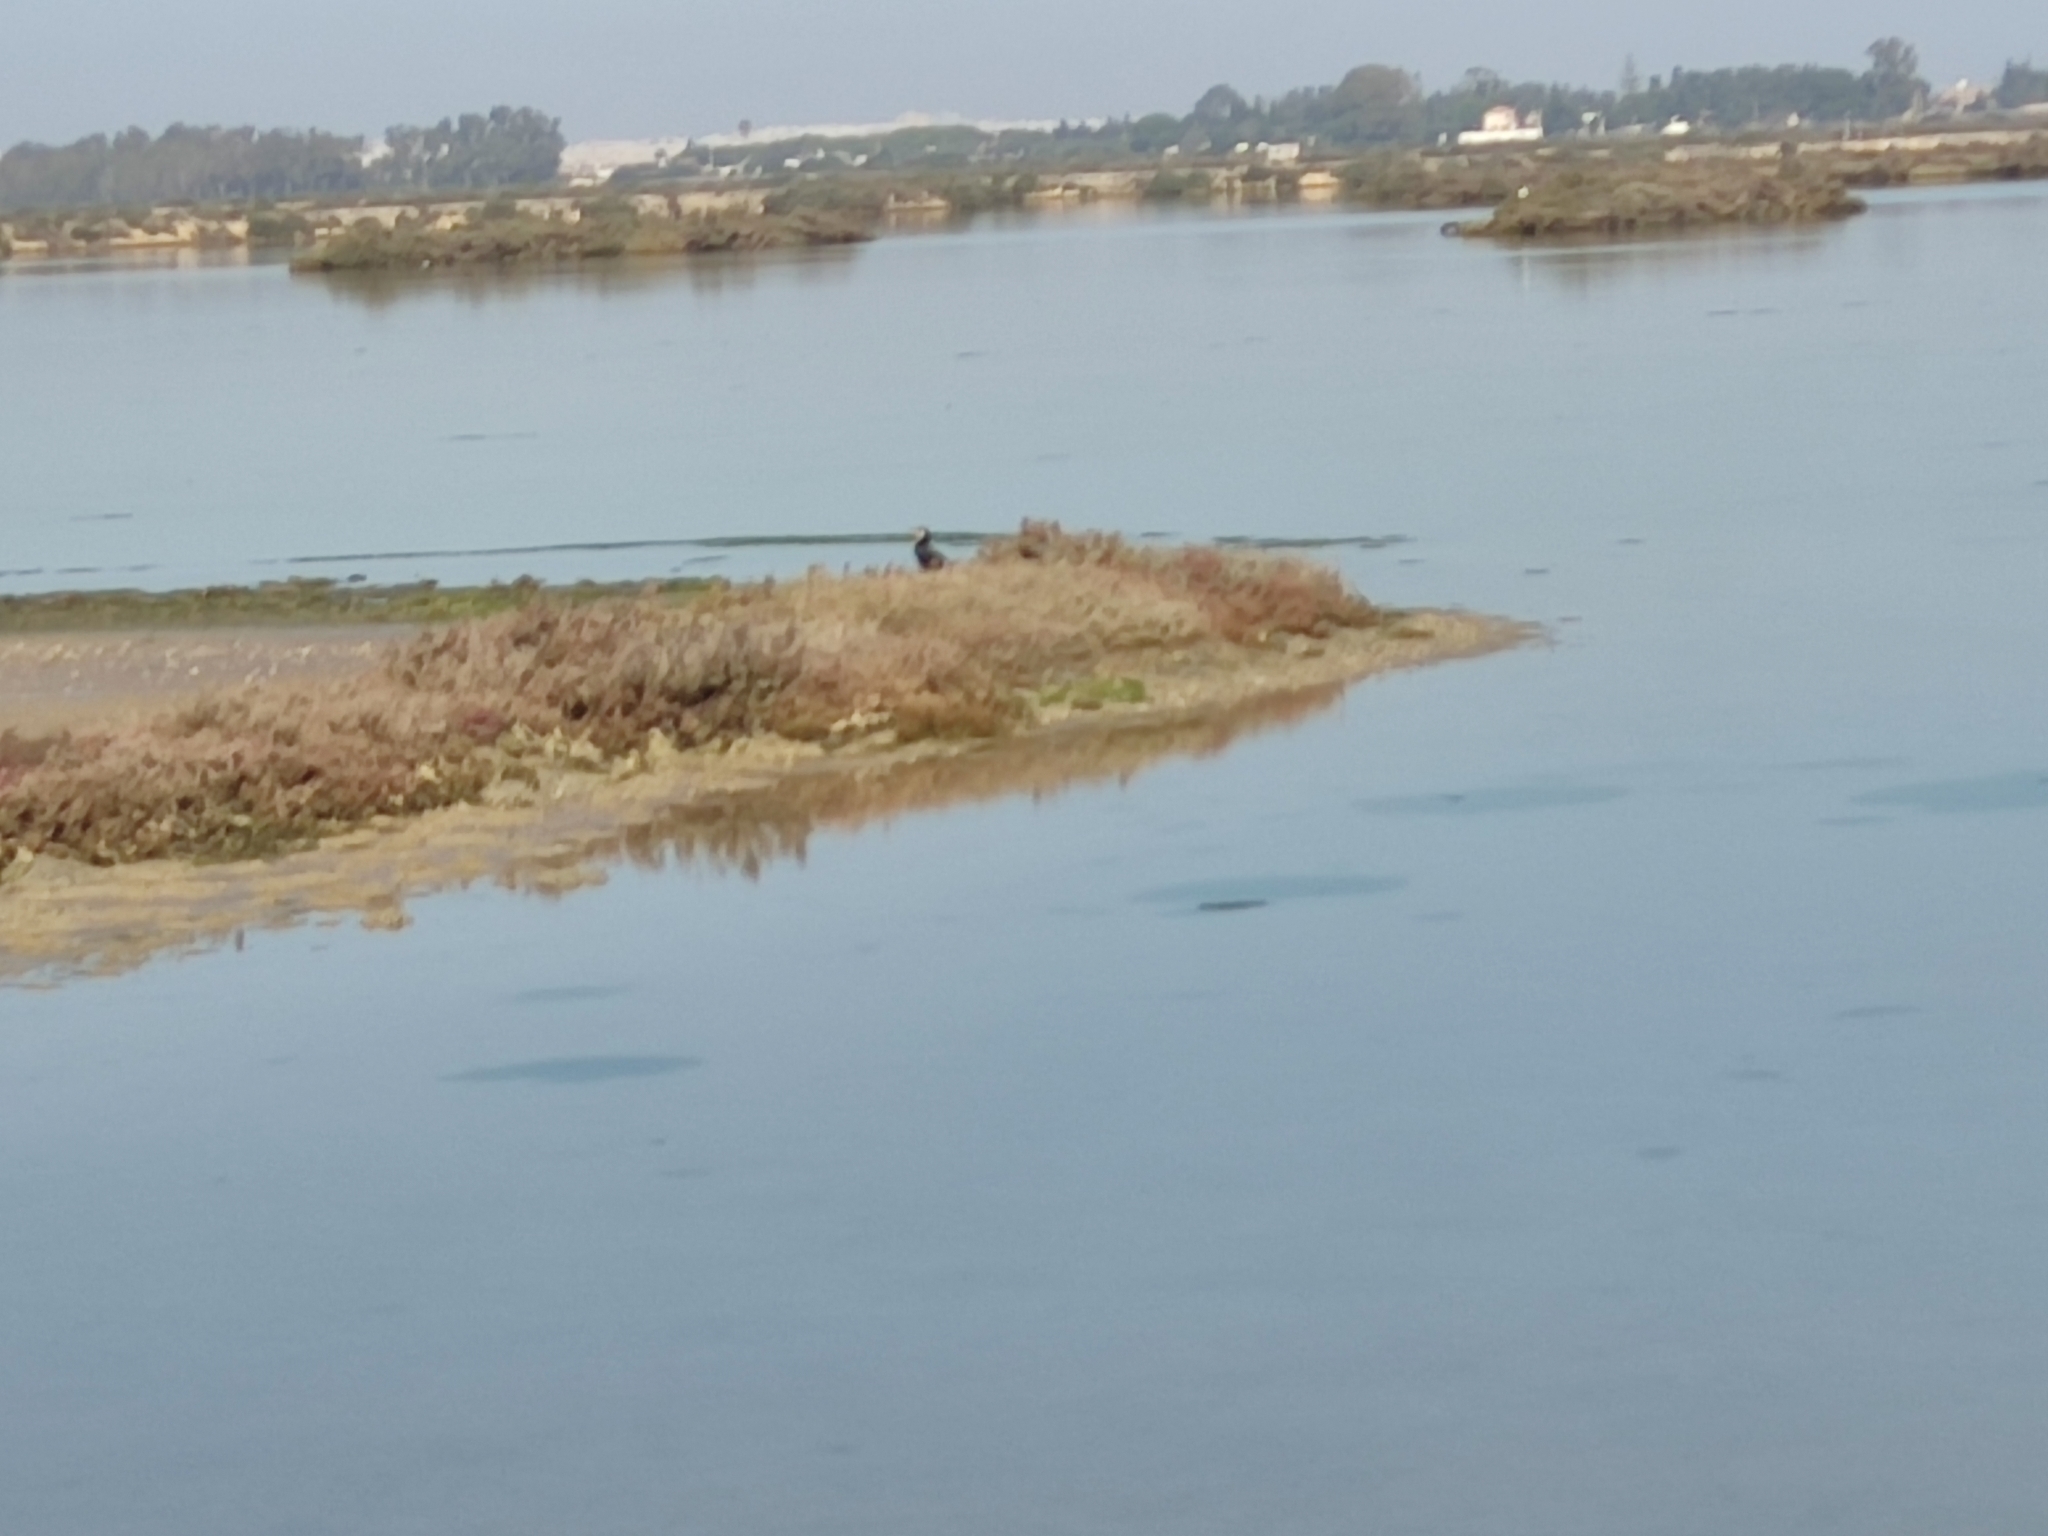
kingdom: Animalia
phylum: Chordata
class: Aves
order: Suliformes
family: Phalacrocoracidae
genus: Phalacrocorax
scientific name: Phalacrocorax carbo
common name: Great cormorant
